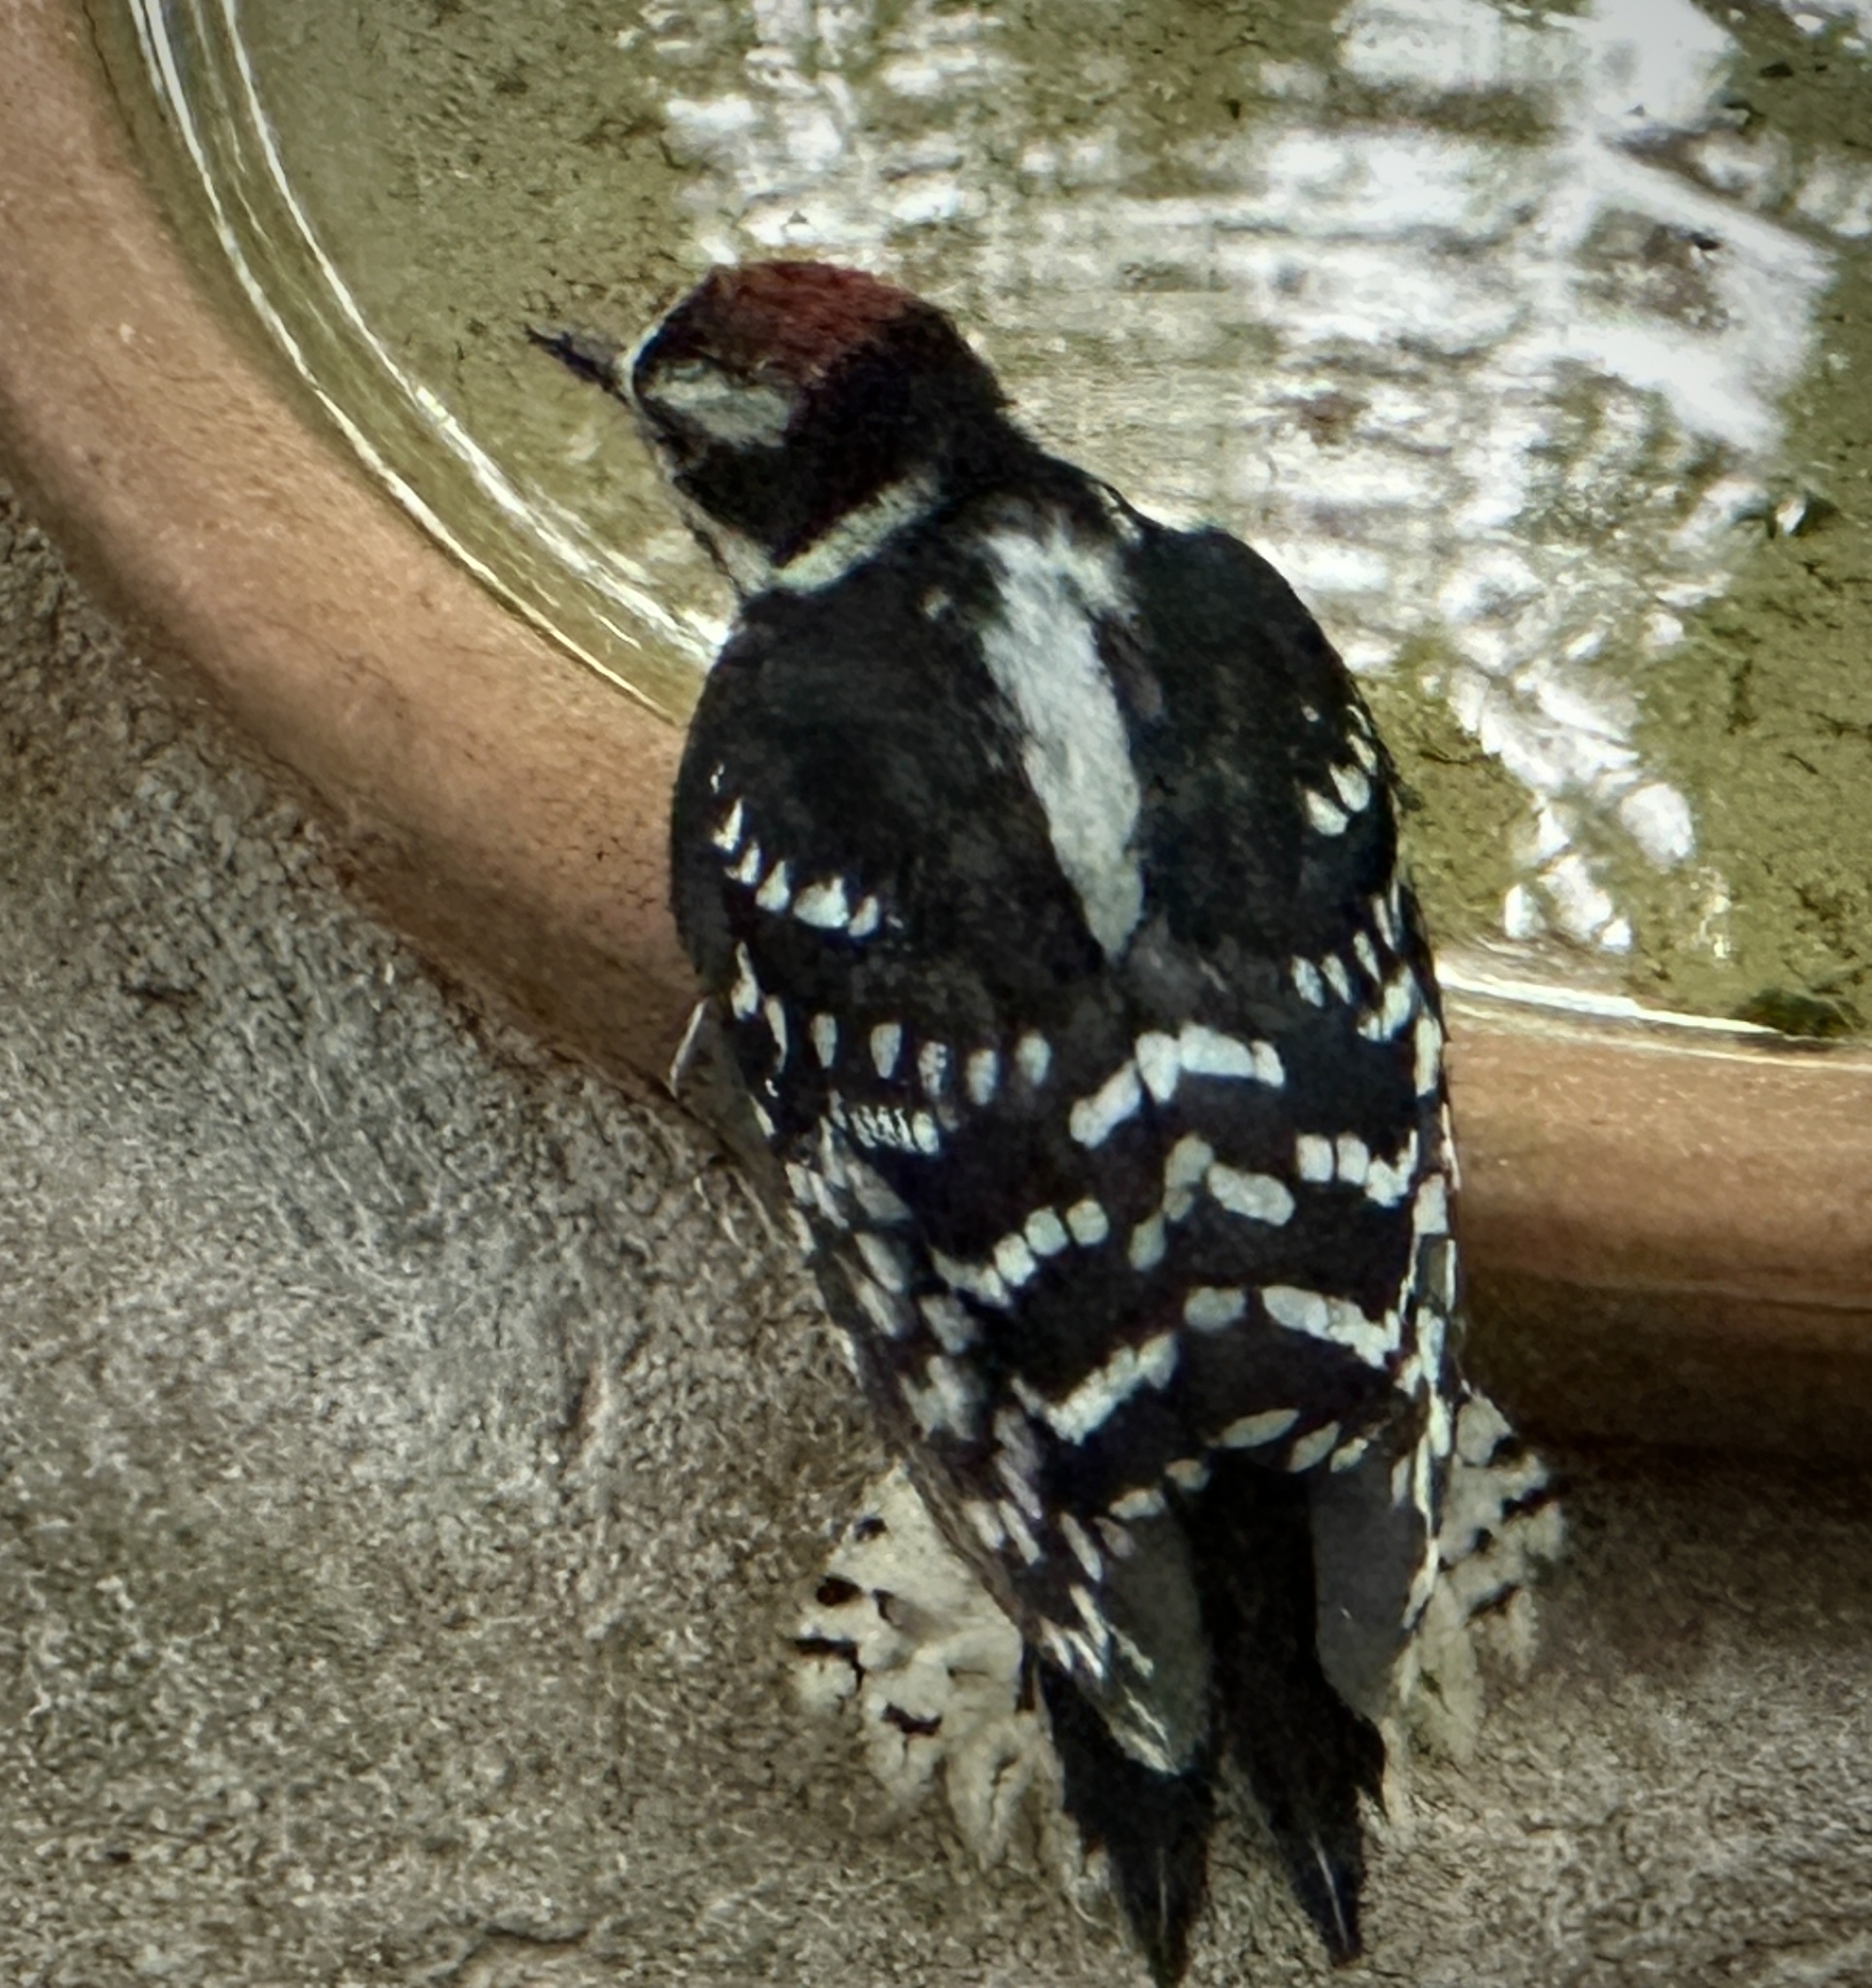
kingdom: Animalia
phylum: Chordata
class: Aves
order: Piciformes
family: Picidae
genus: Dryobates
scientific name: Dryobates pubescens
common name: Downy woodpecker
